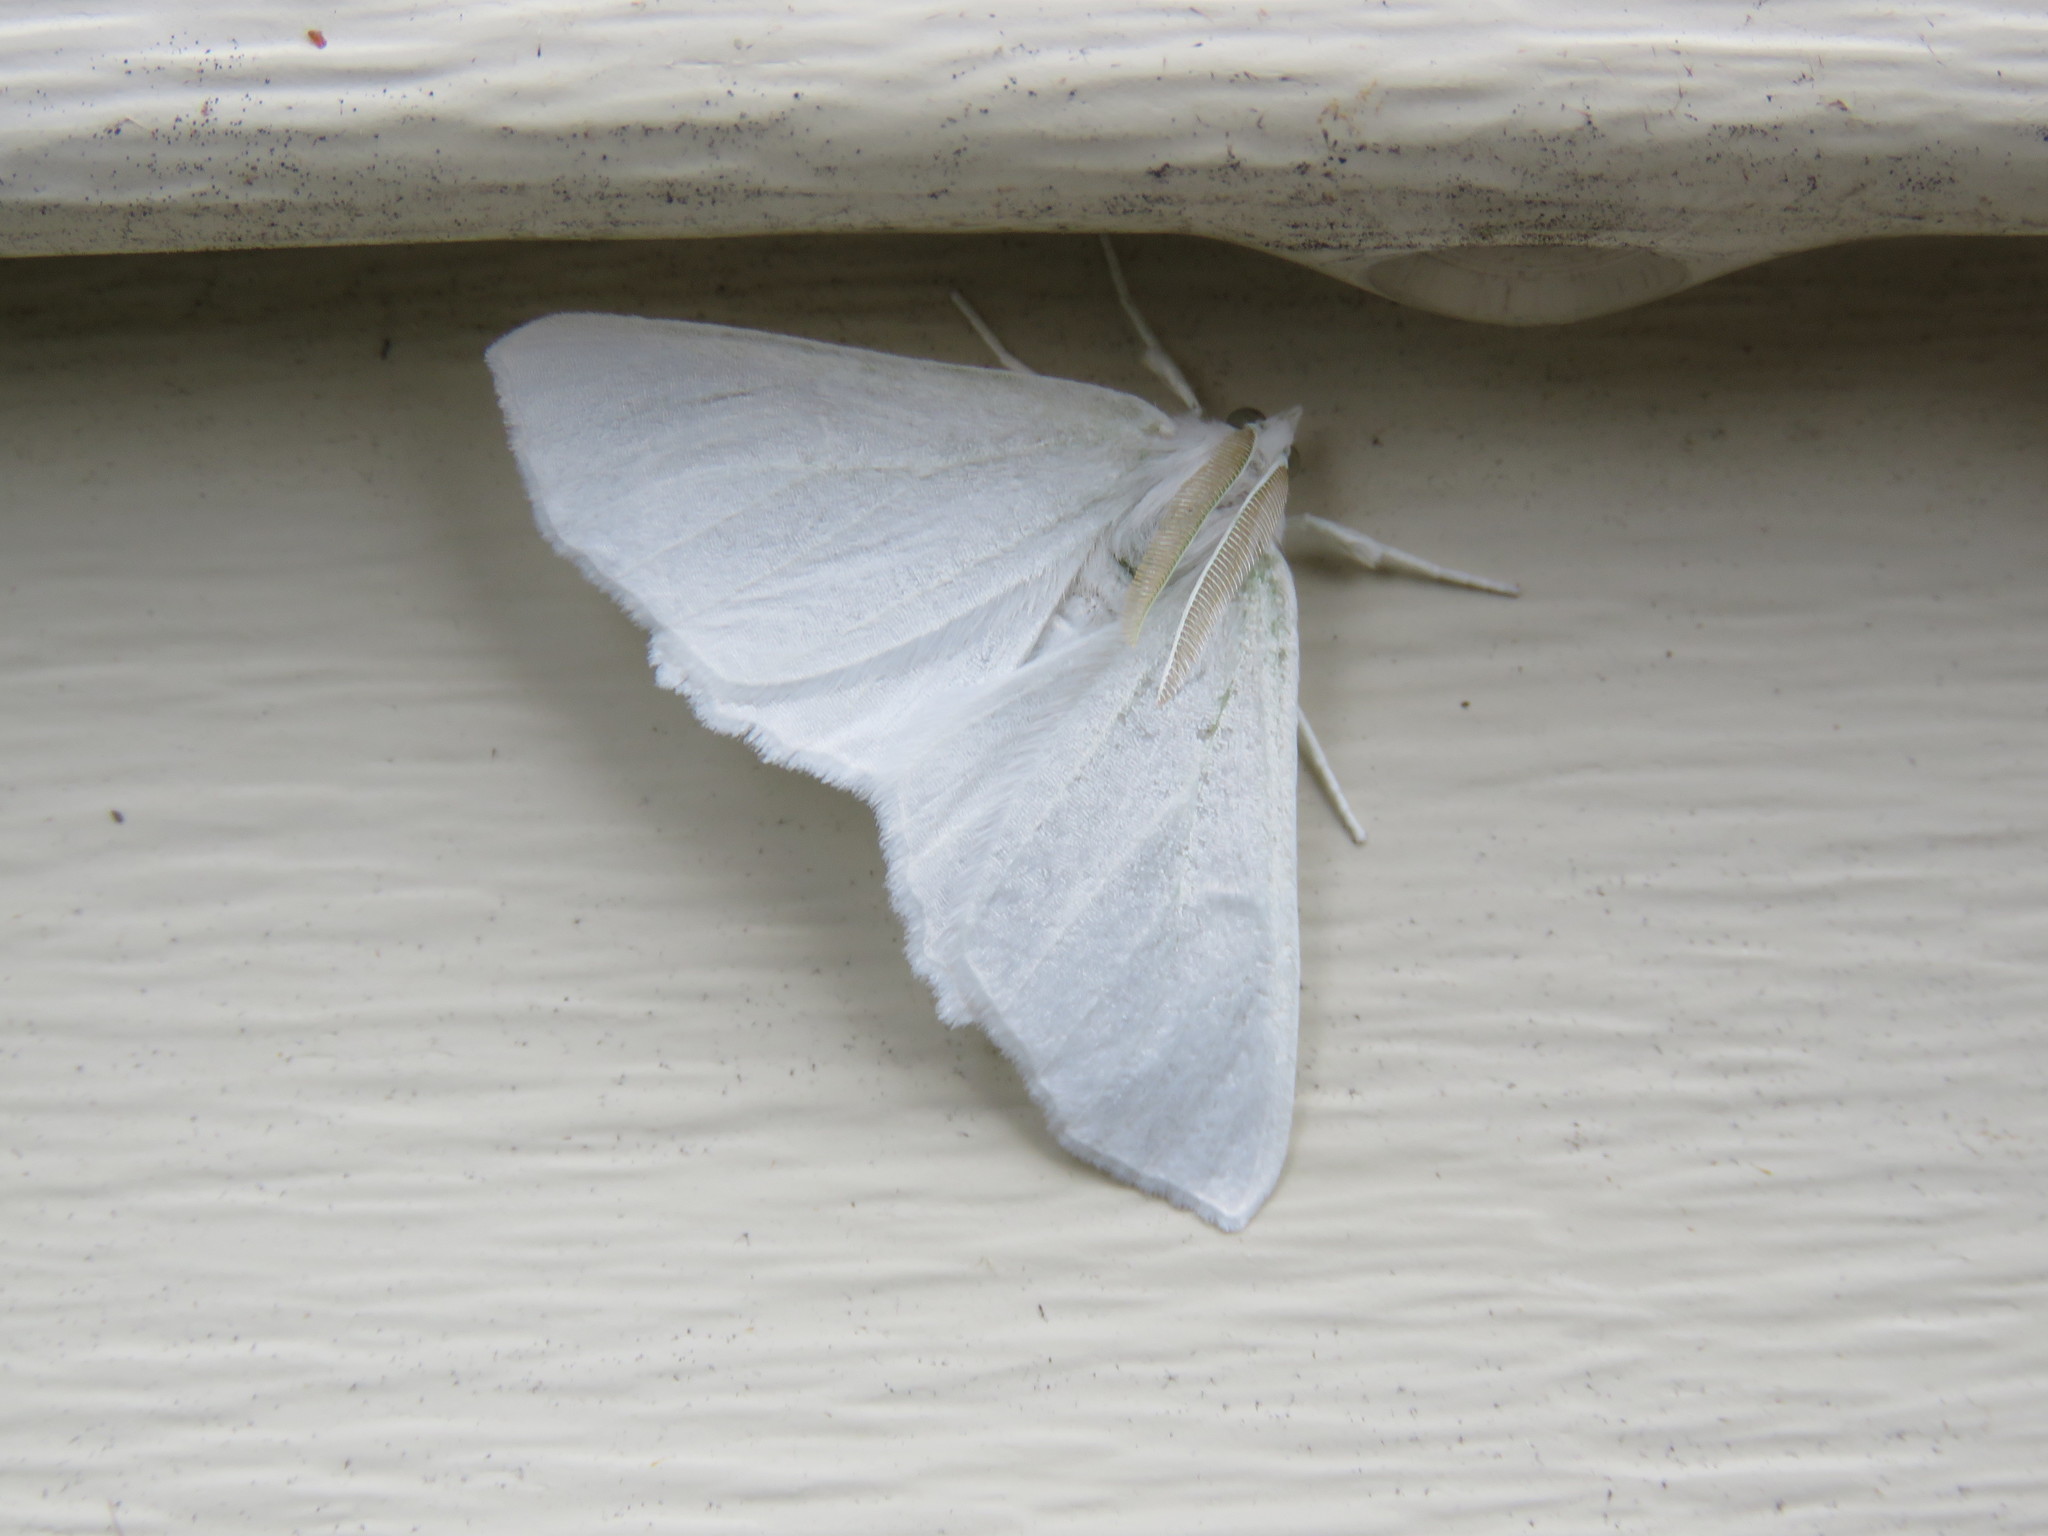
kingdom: Animalia
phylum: Arthropoda
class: Insecta
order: Lepidoptera
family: Geometridae
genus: Ennomos
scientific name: Ennomos subsignaria
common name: Elm spanworm
